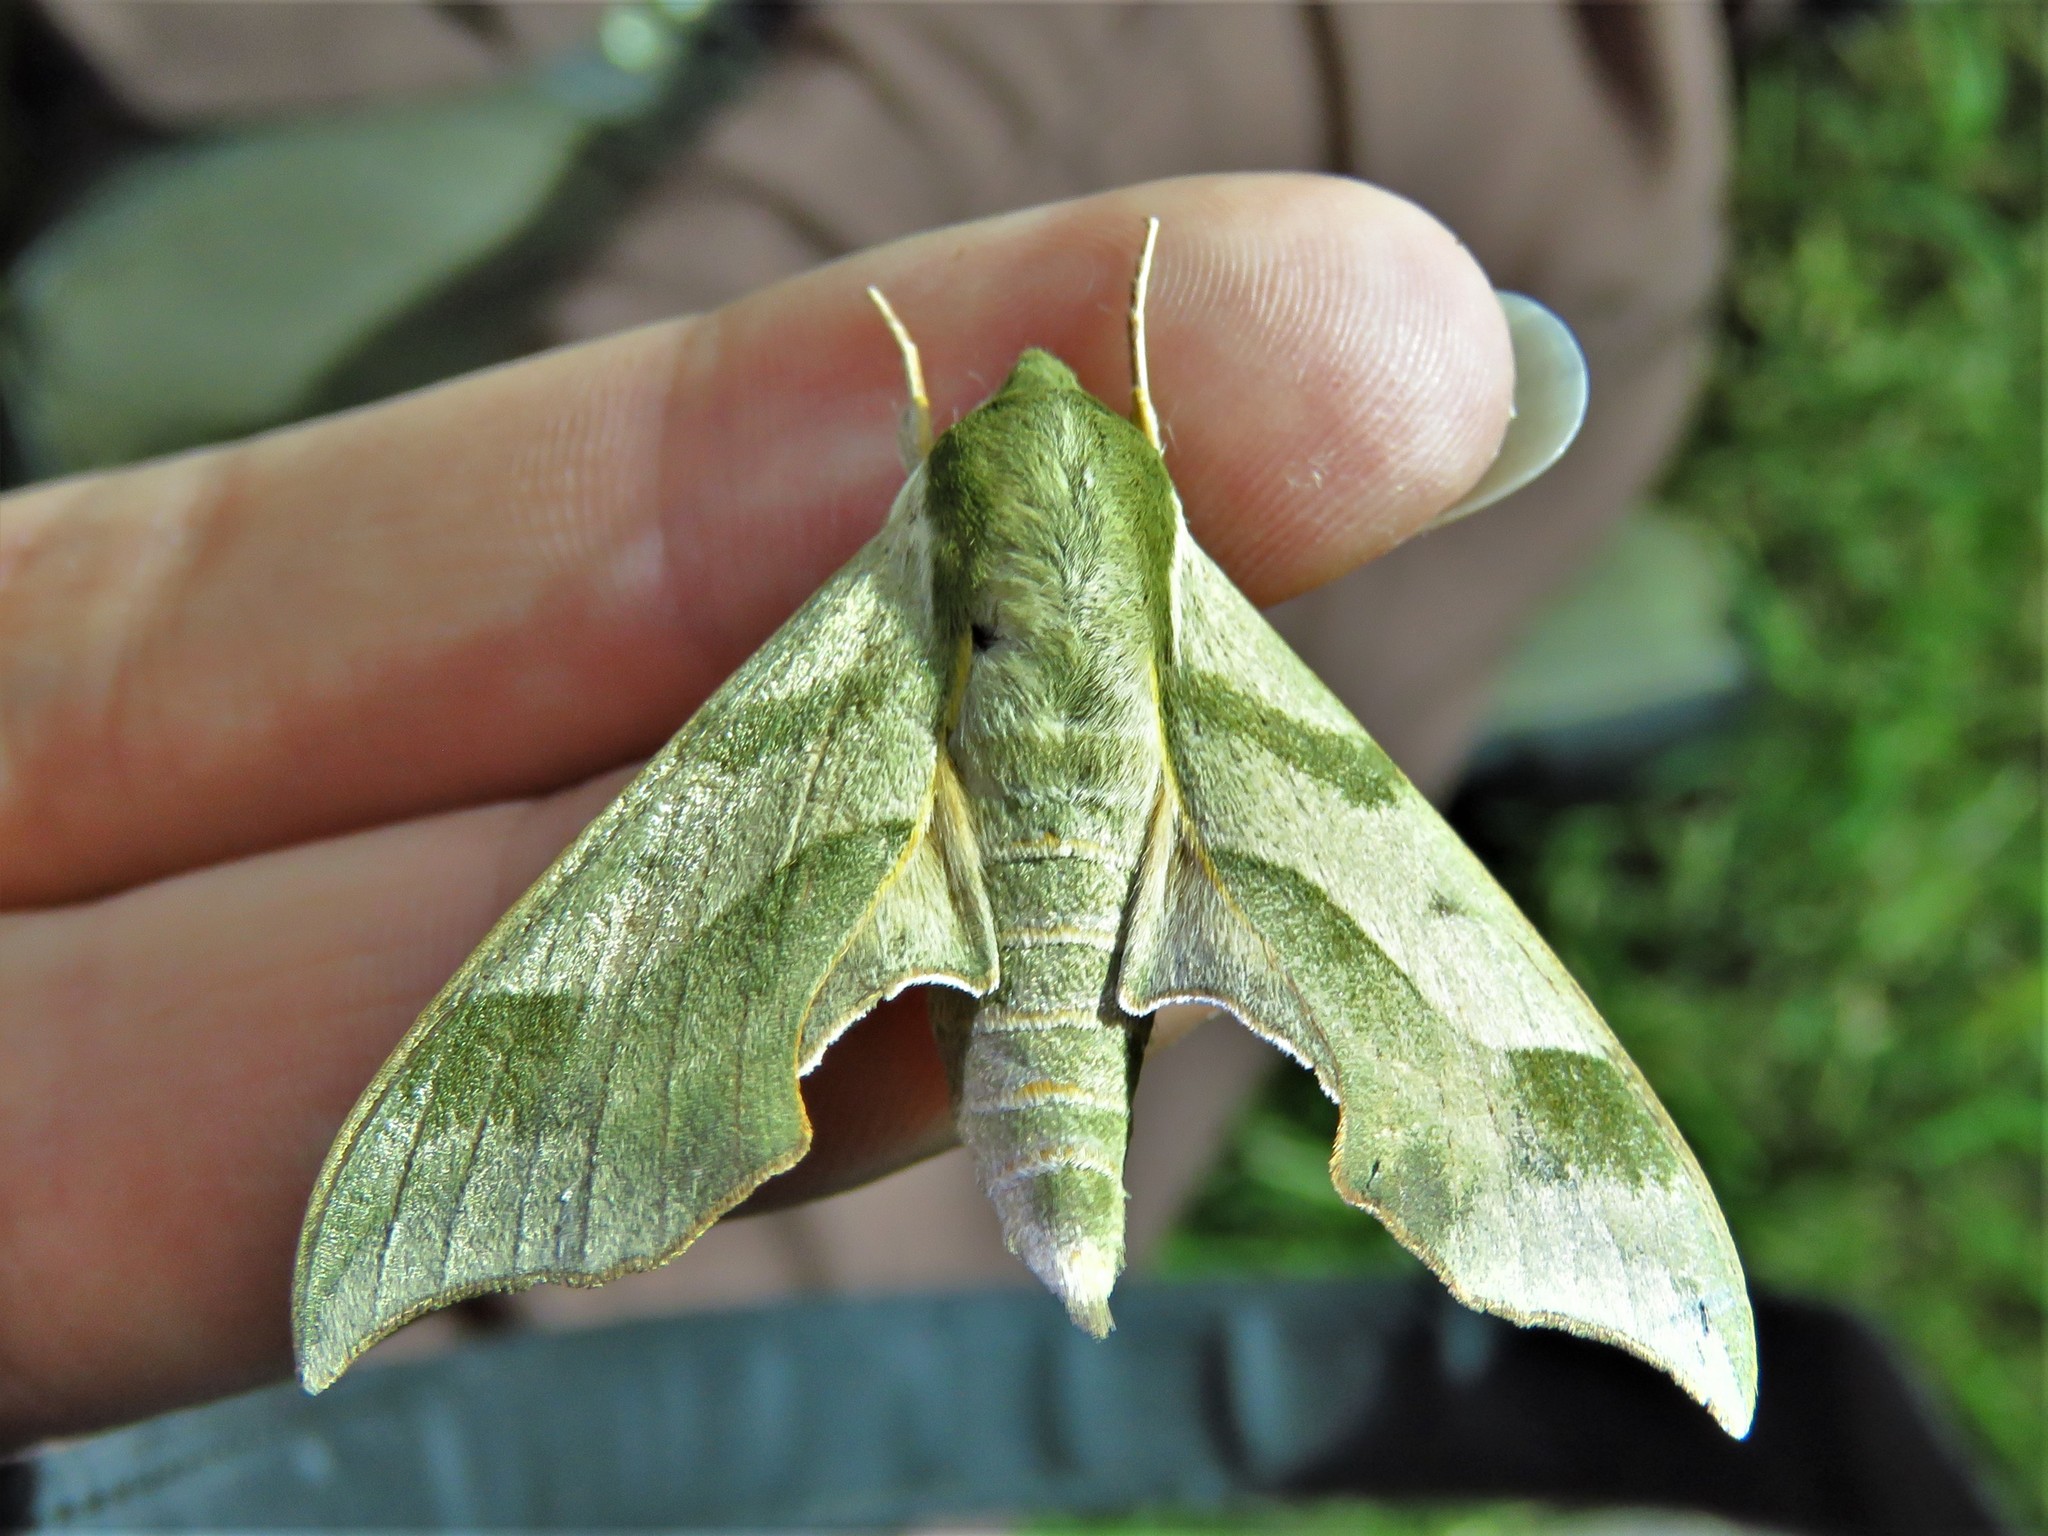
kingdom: Animalia
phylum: Arthropoda
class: Insecta
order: Lepidoptera
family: Sphingidae
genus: Darapsa
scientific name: Darapsa myron
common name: Hog sphinx
